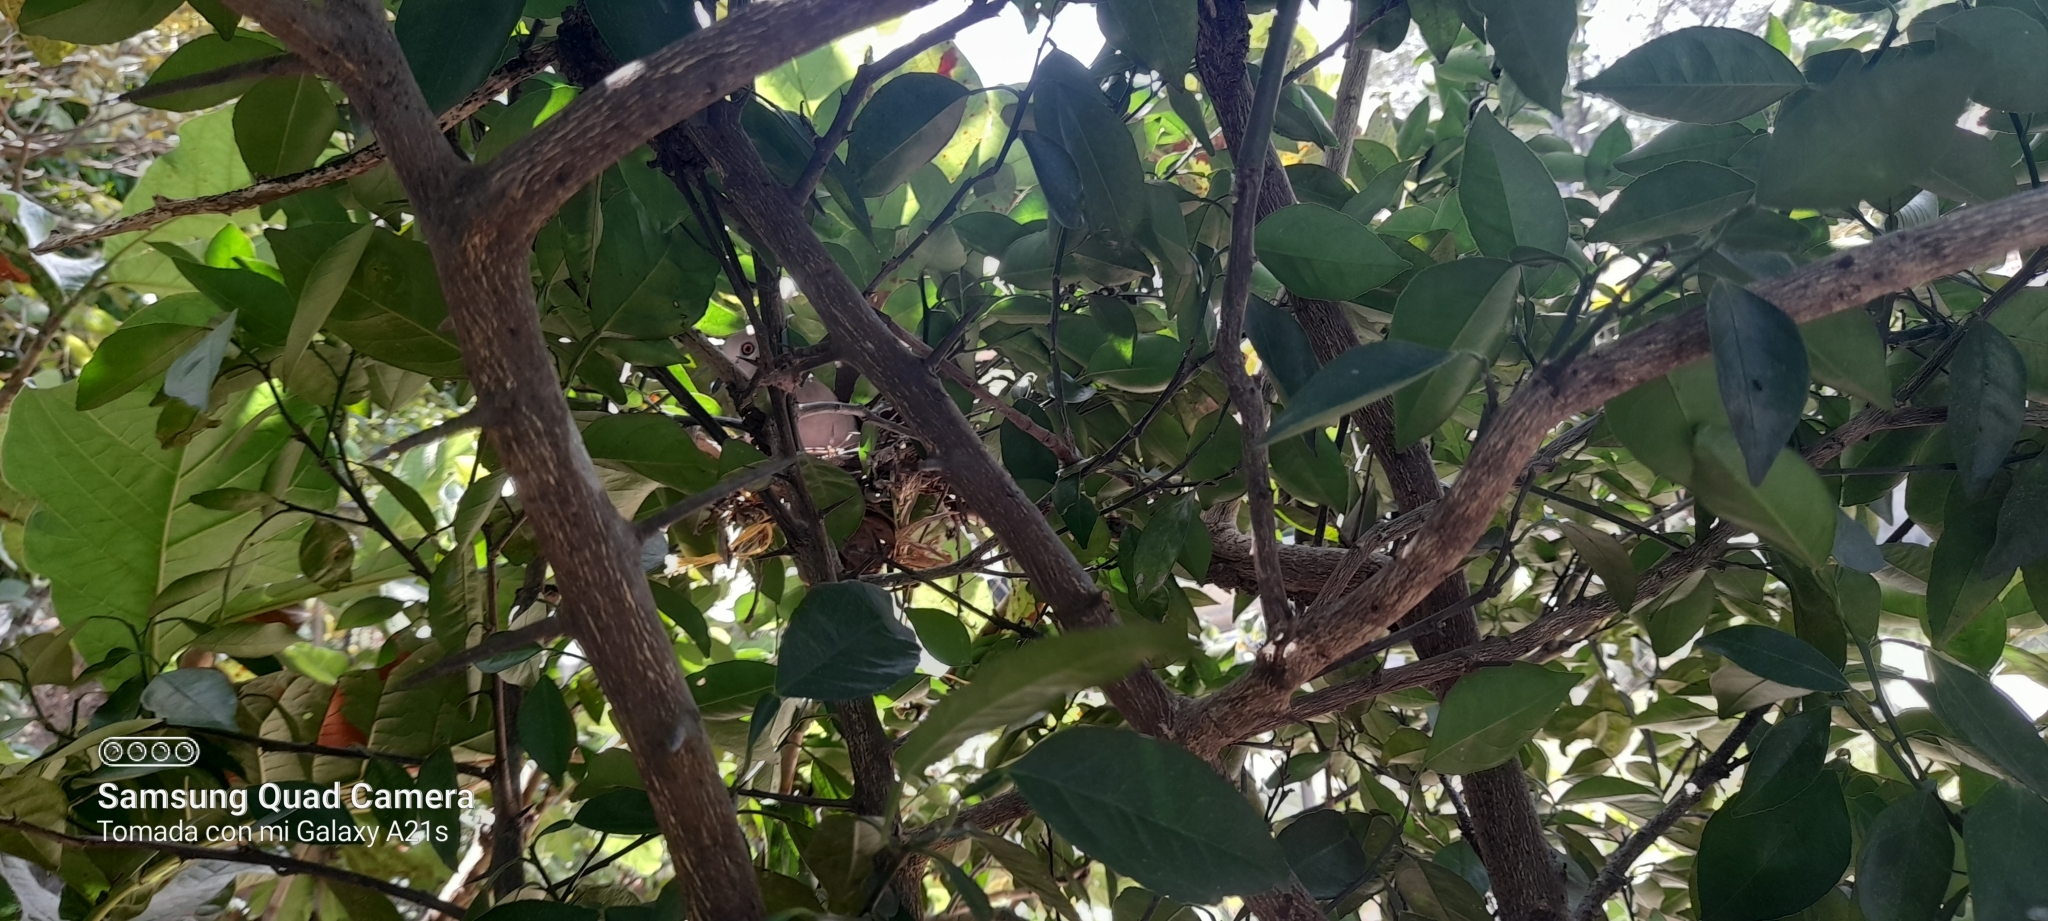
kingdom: Animalia
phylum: Chordata
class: Aves
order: Columbiformes
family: Columbidae
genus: Leptotila
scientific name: Leptotila verreauxi
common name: White-tipped dove
